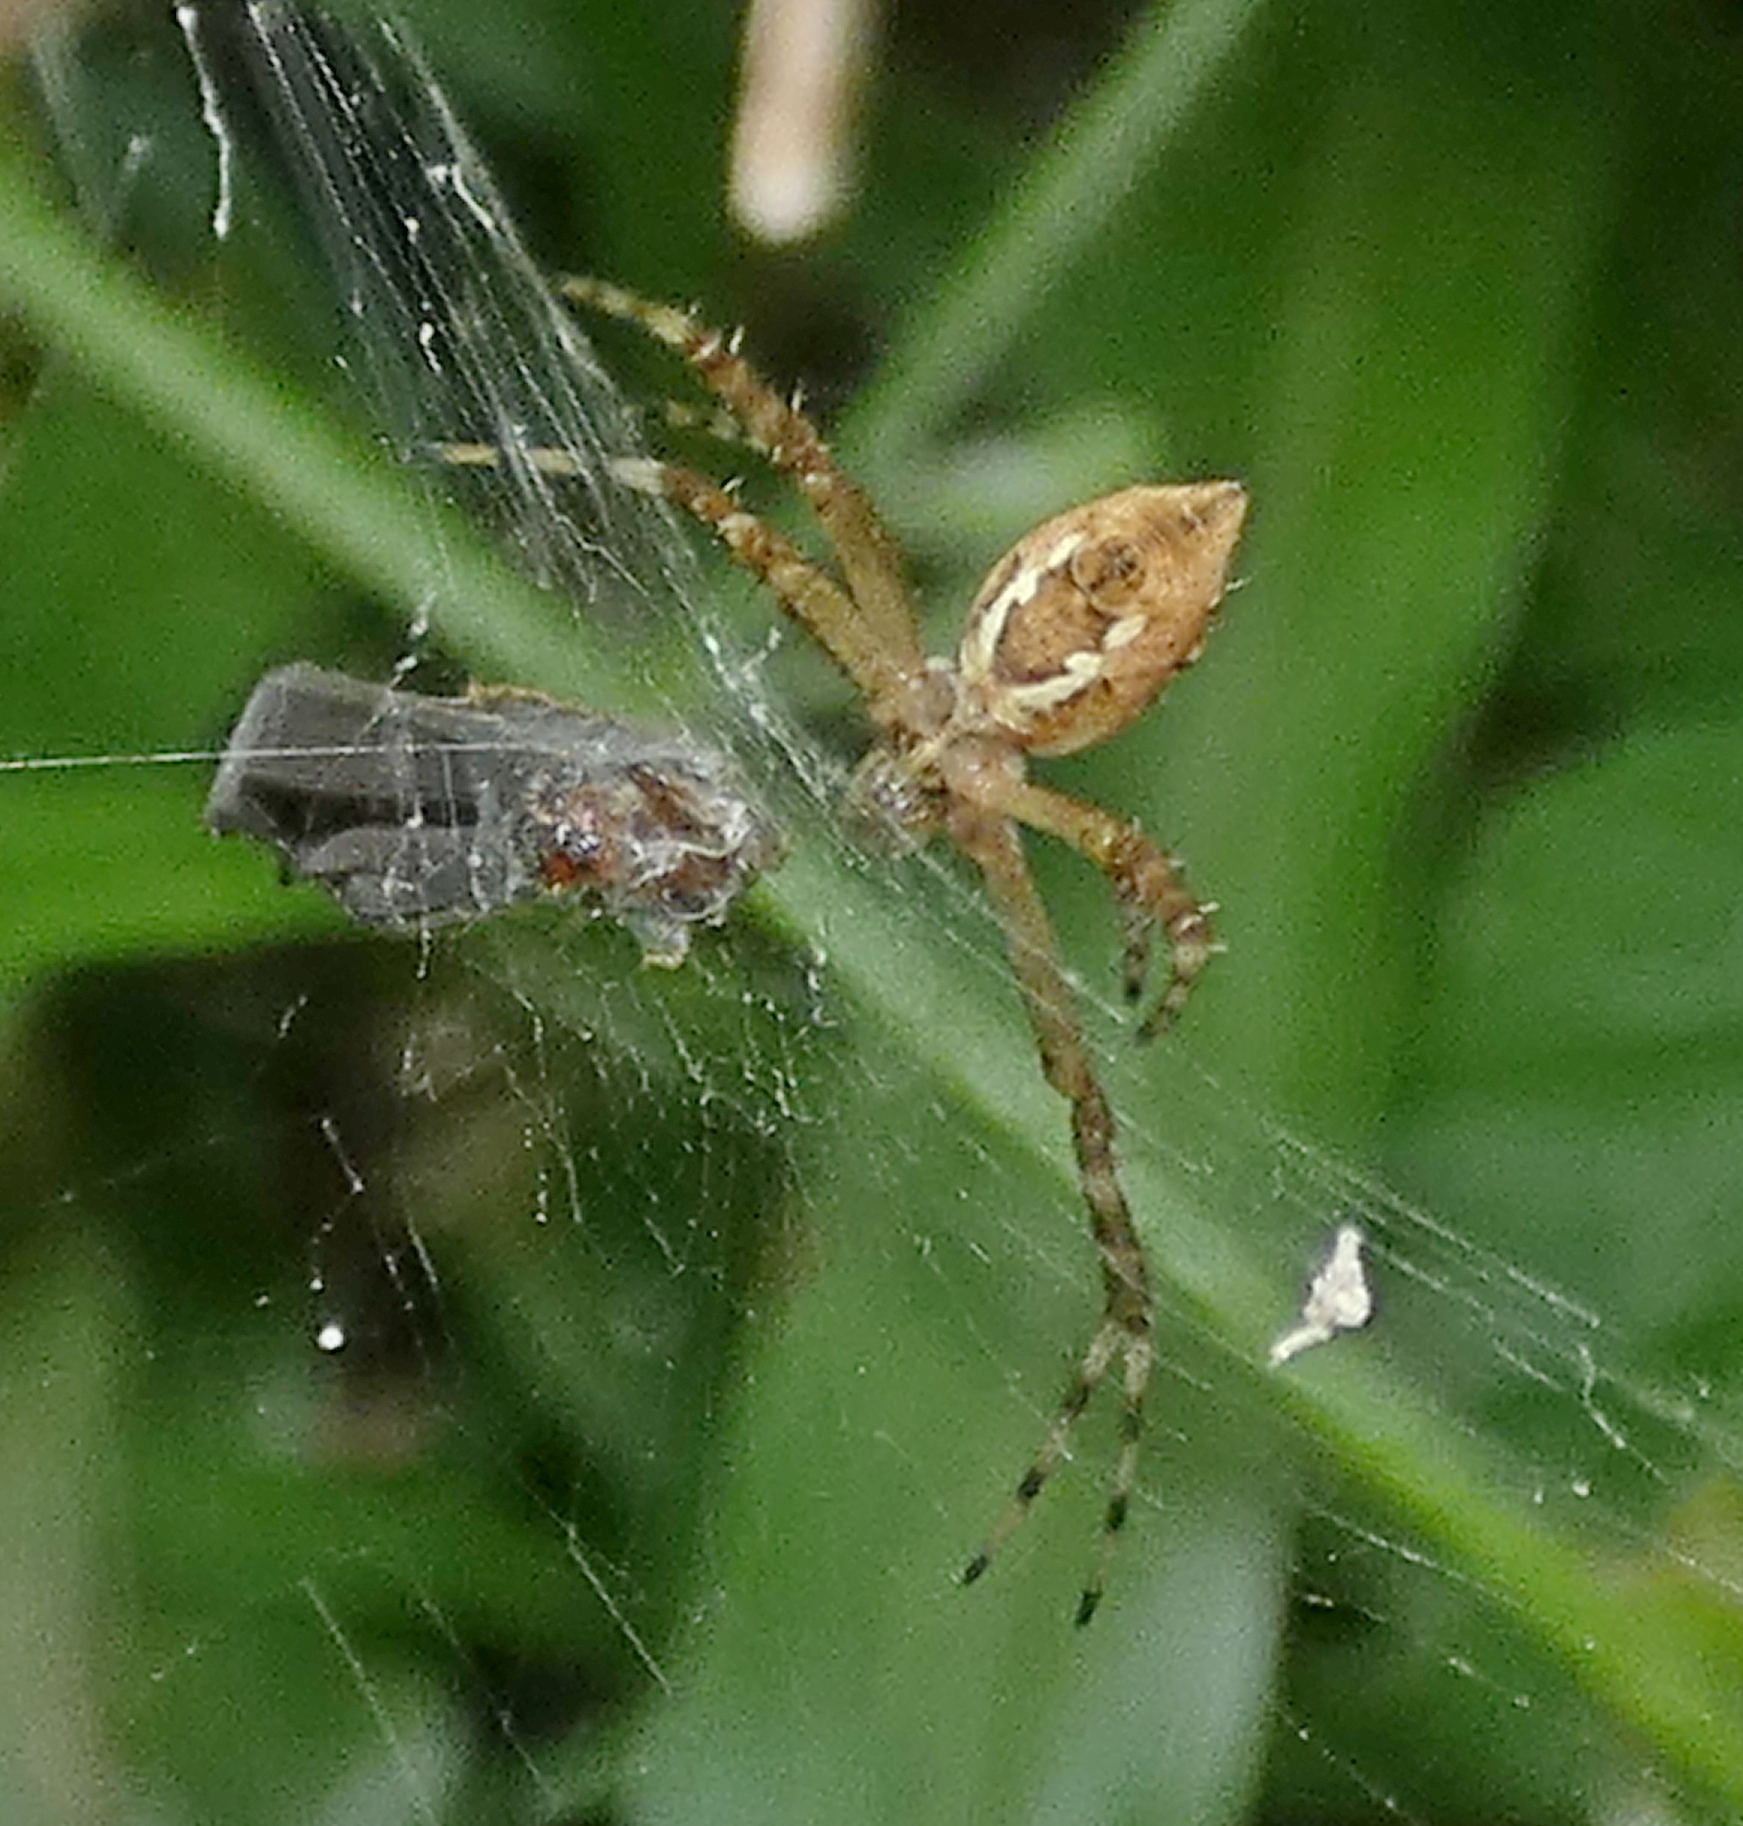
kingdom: Animalia
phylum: Arthropoda
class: Arachnida
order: Araneae
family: Araneidae
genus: Argiope
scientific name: Argiope argentata
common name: Orb weavers
